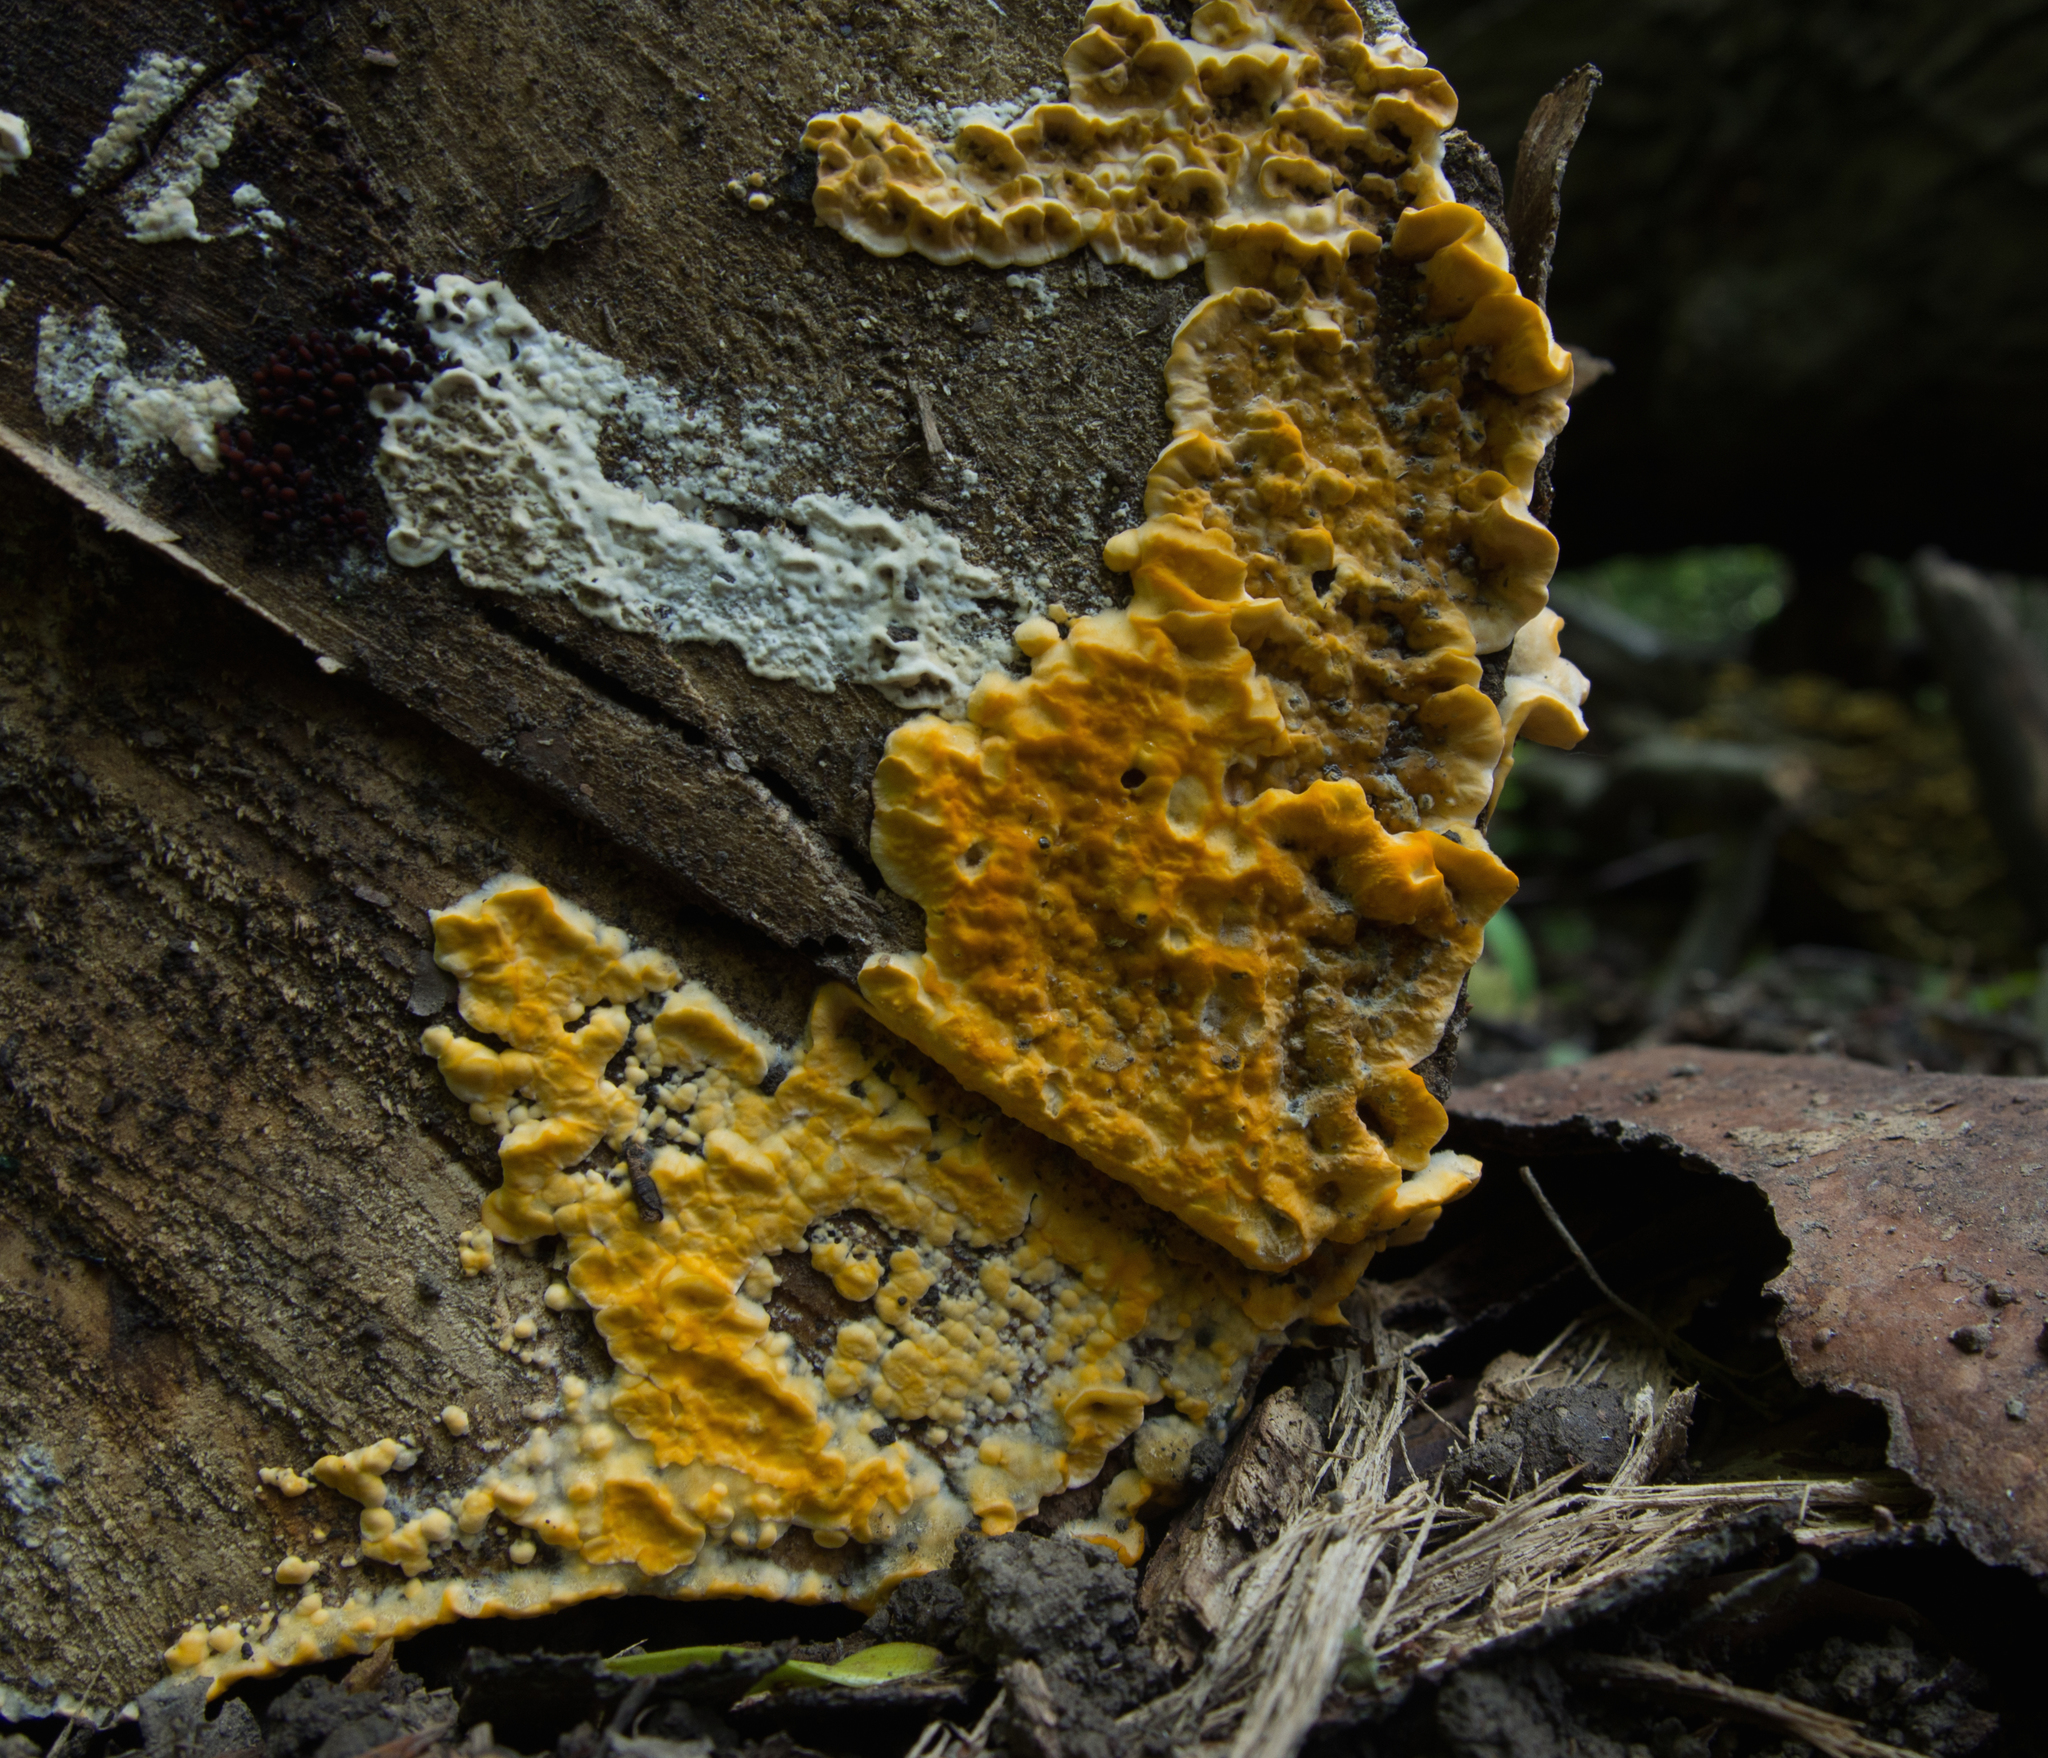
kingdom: Fungi
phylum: Basidiomycota
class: Agaricomycetes
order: Russulales
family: Stereaceae
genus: Xylobolus
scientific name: Xylobolus subpileatus
